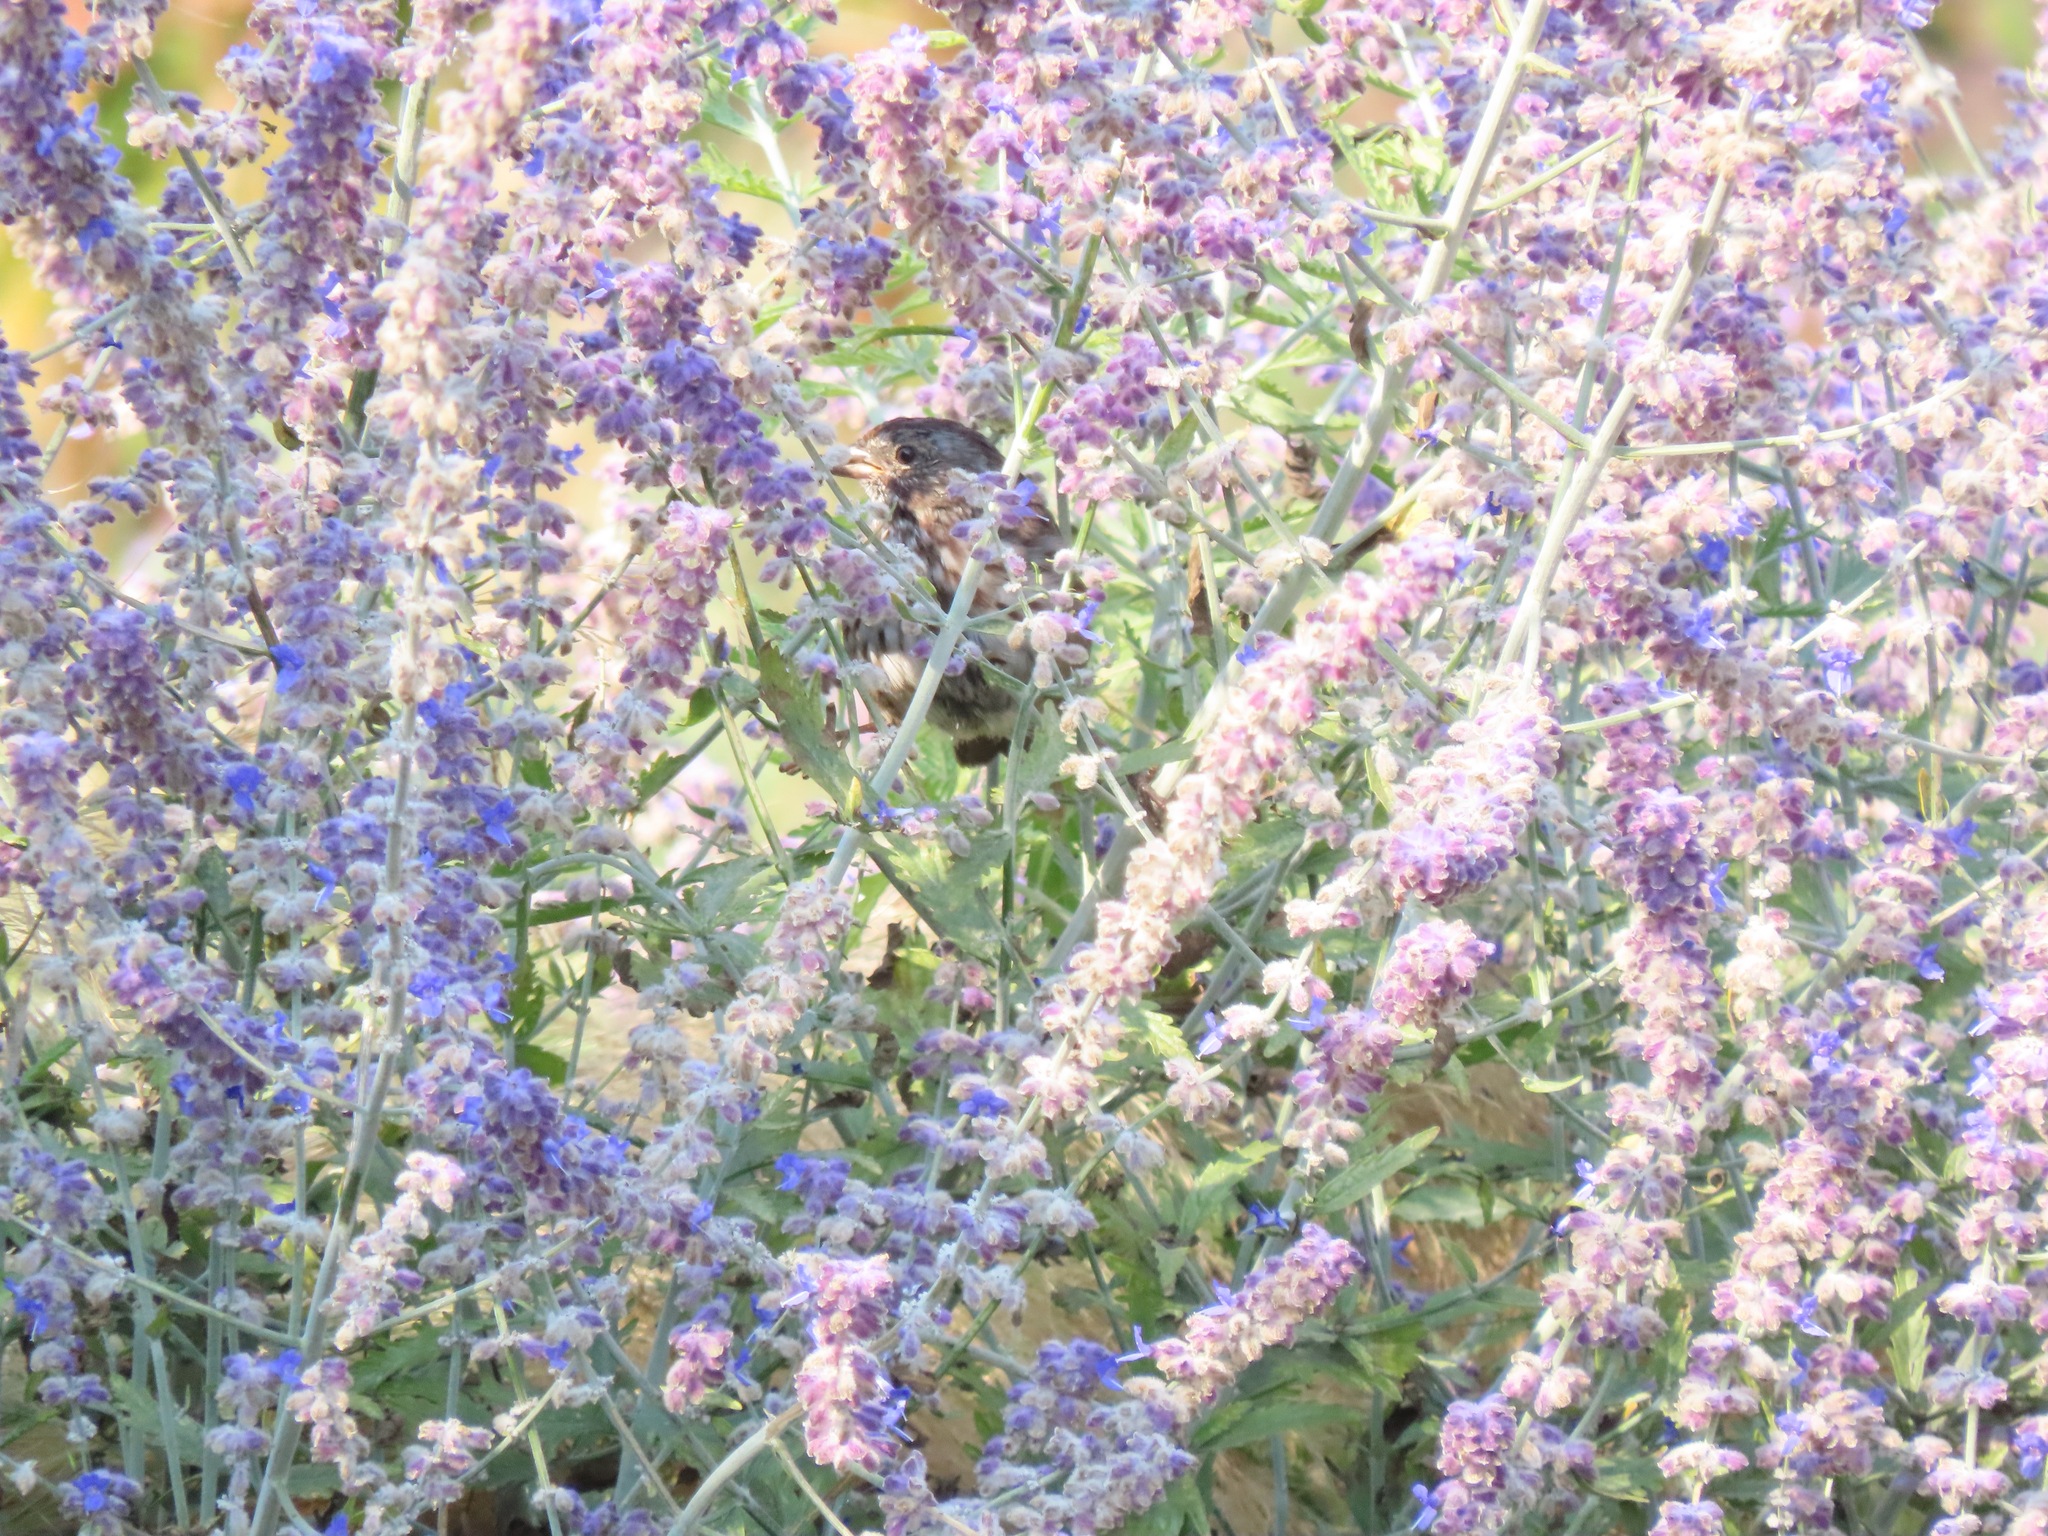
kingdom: Animalia
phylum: Chordata
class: Aves
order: Passeriformes
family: Passerellidae
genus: Melospiza
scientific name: Melospiza melodia
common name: Song sparrow
